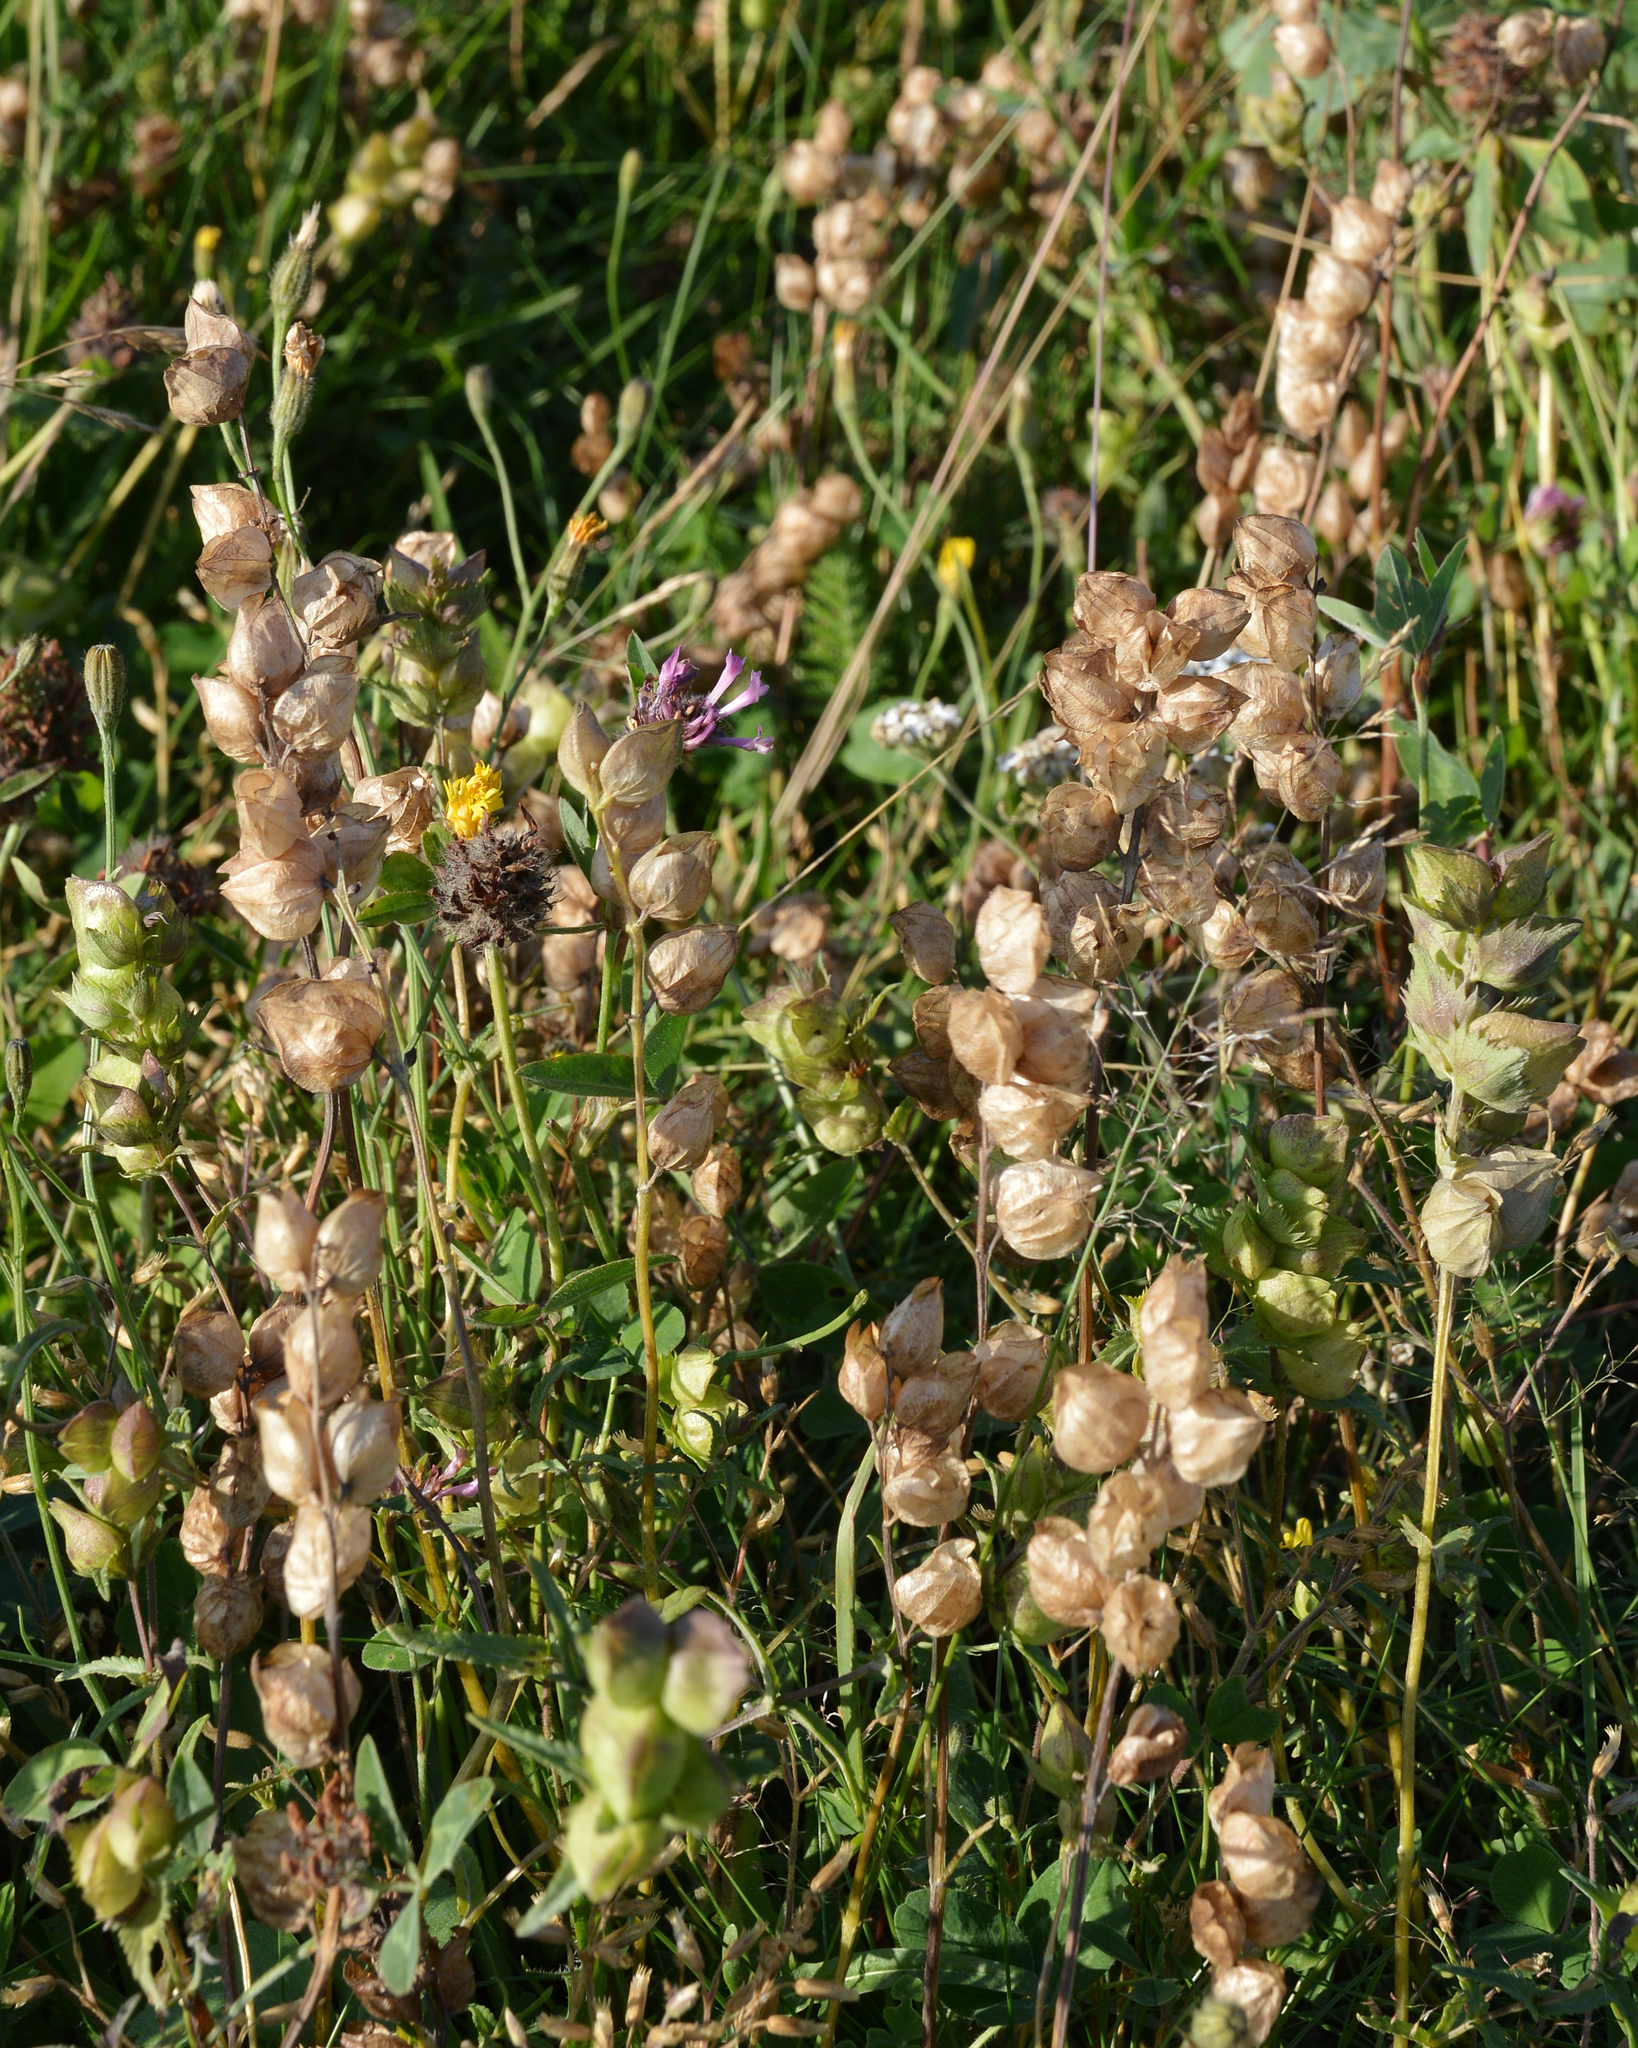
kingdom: Plantae
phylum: Tracheophyta
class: Magnoliopsida
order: Lamiales
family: Orobanchaceae
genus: Rhinanthus
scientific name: Rhinanthus minor
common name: Yellow-rattle
